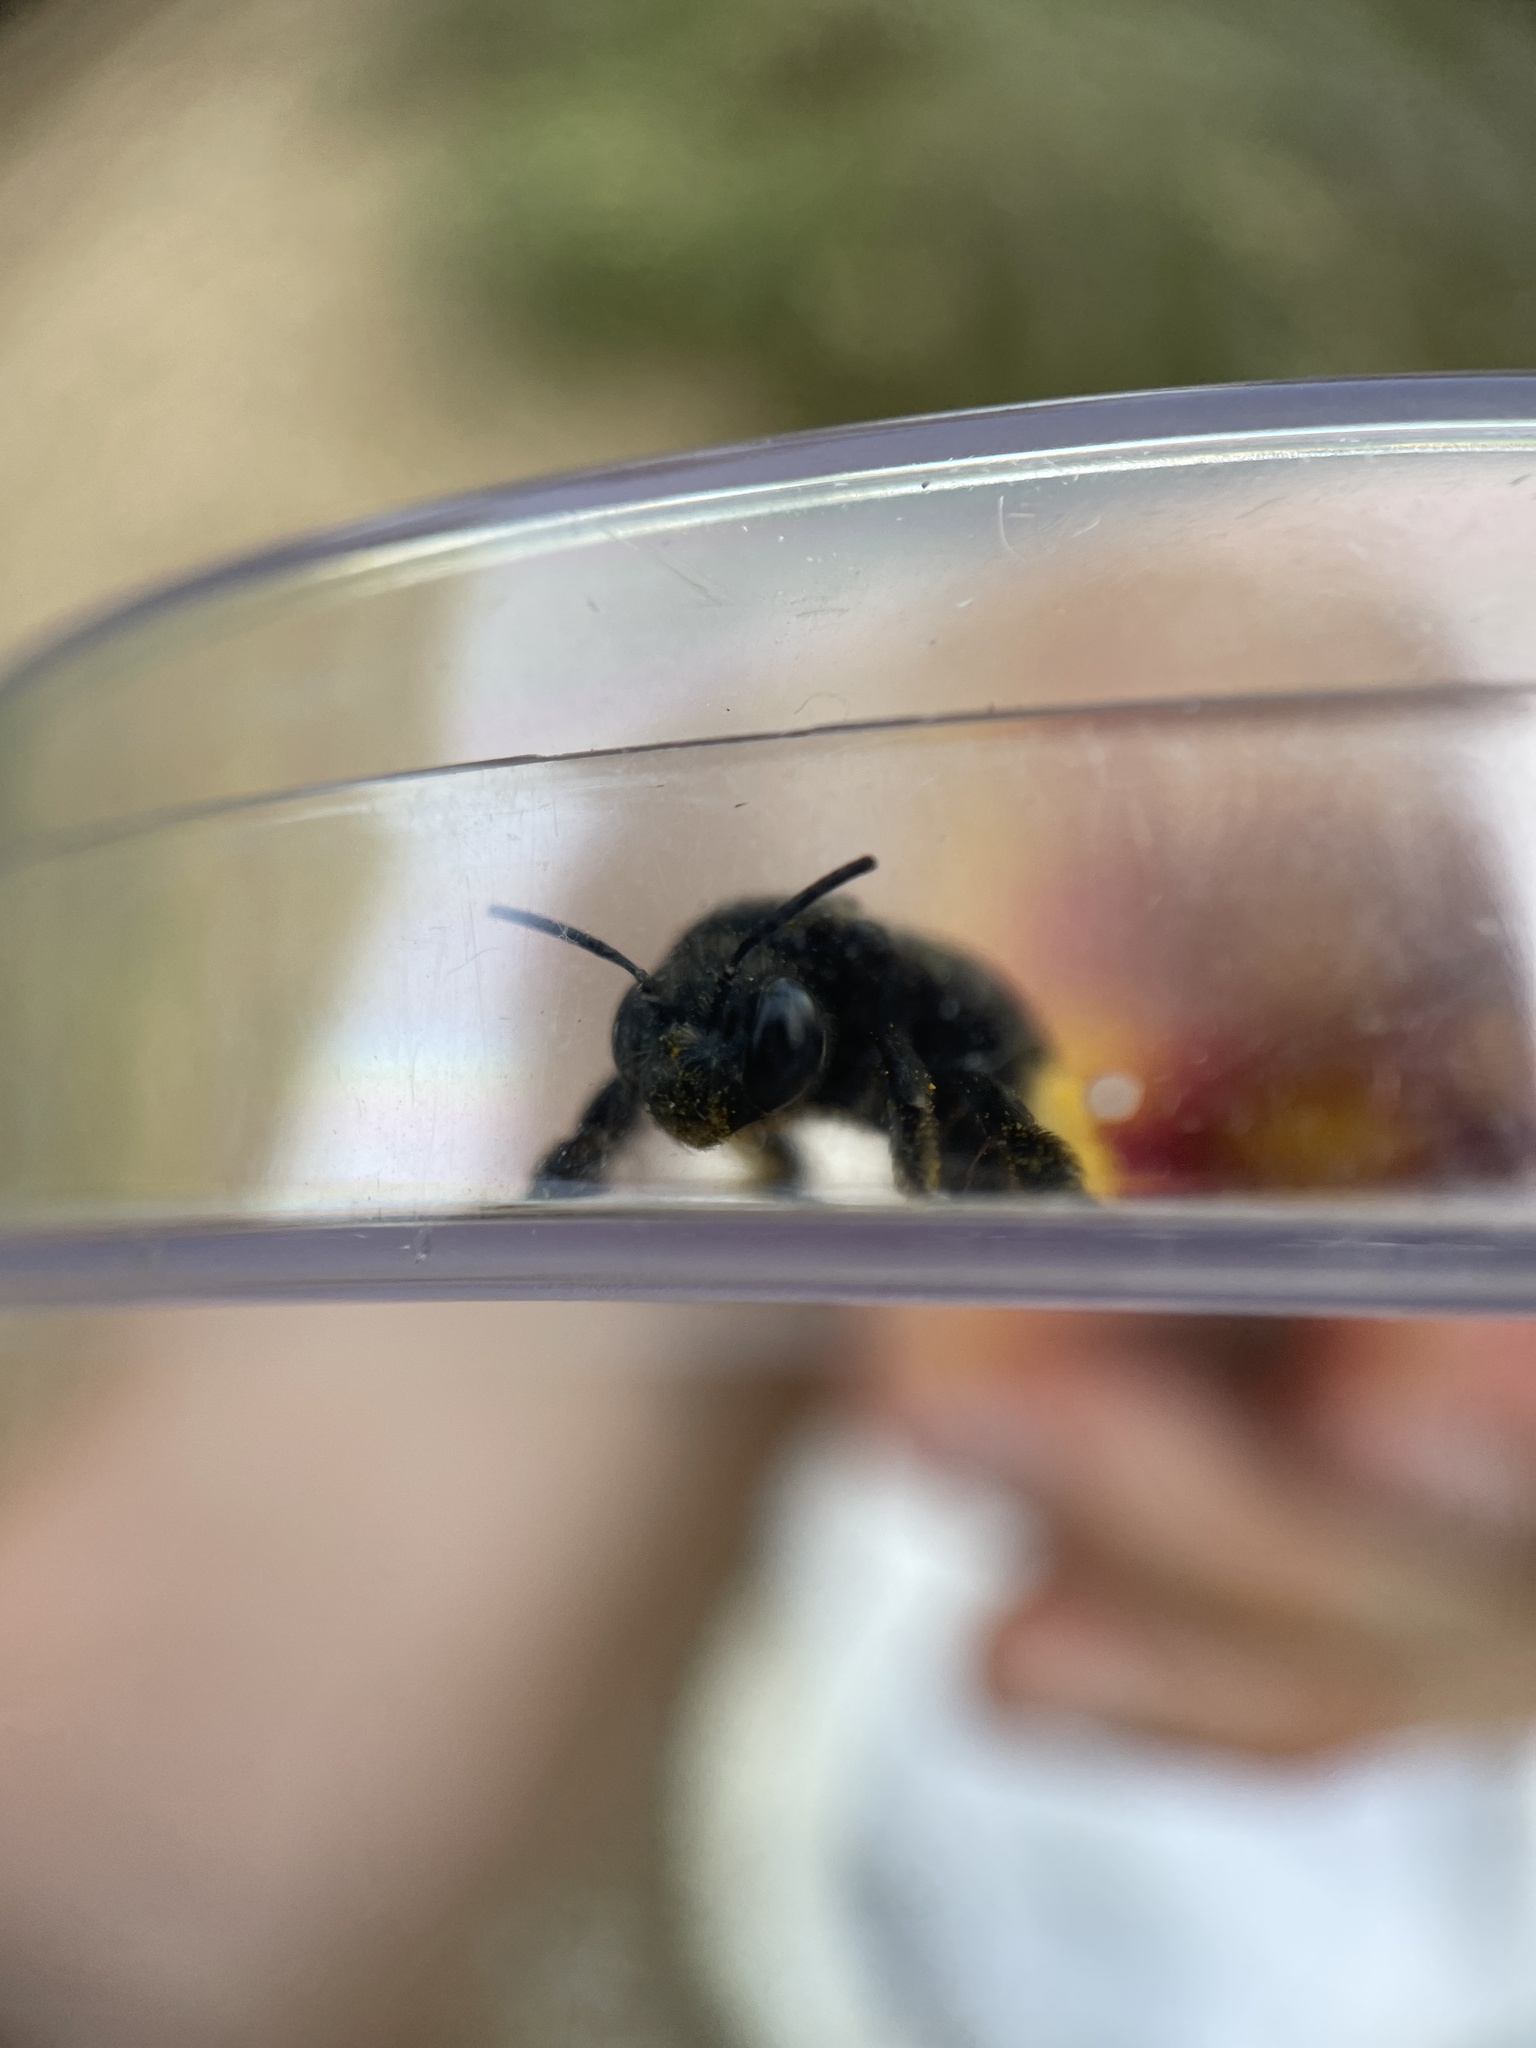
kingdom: Animalia
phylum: Arthropoda
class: Insecta
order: Hymenoptera
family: Apidae
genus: Melissodes
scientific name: Melissodes bimaculatus
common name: Two-spotted long-horned bee
